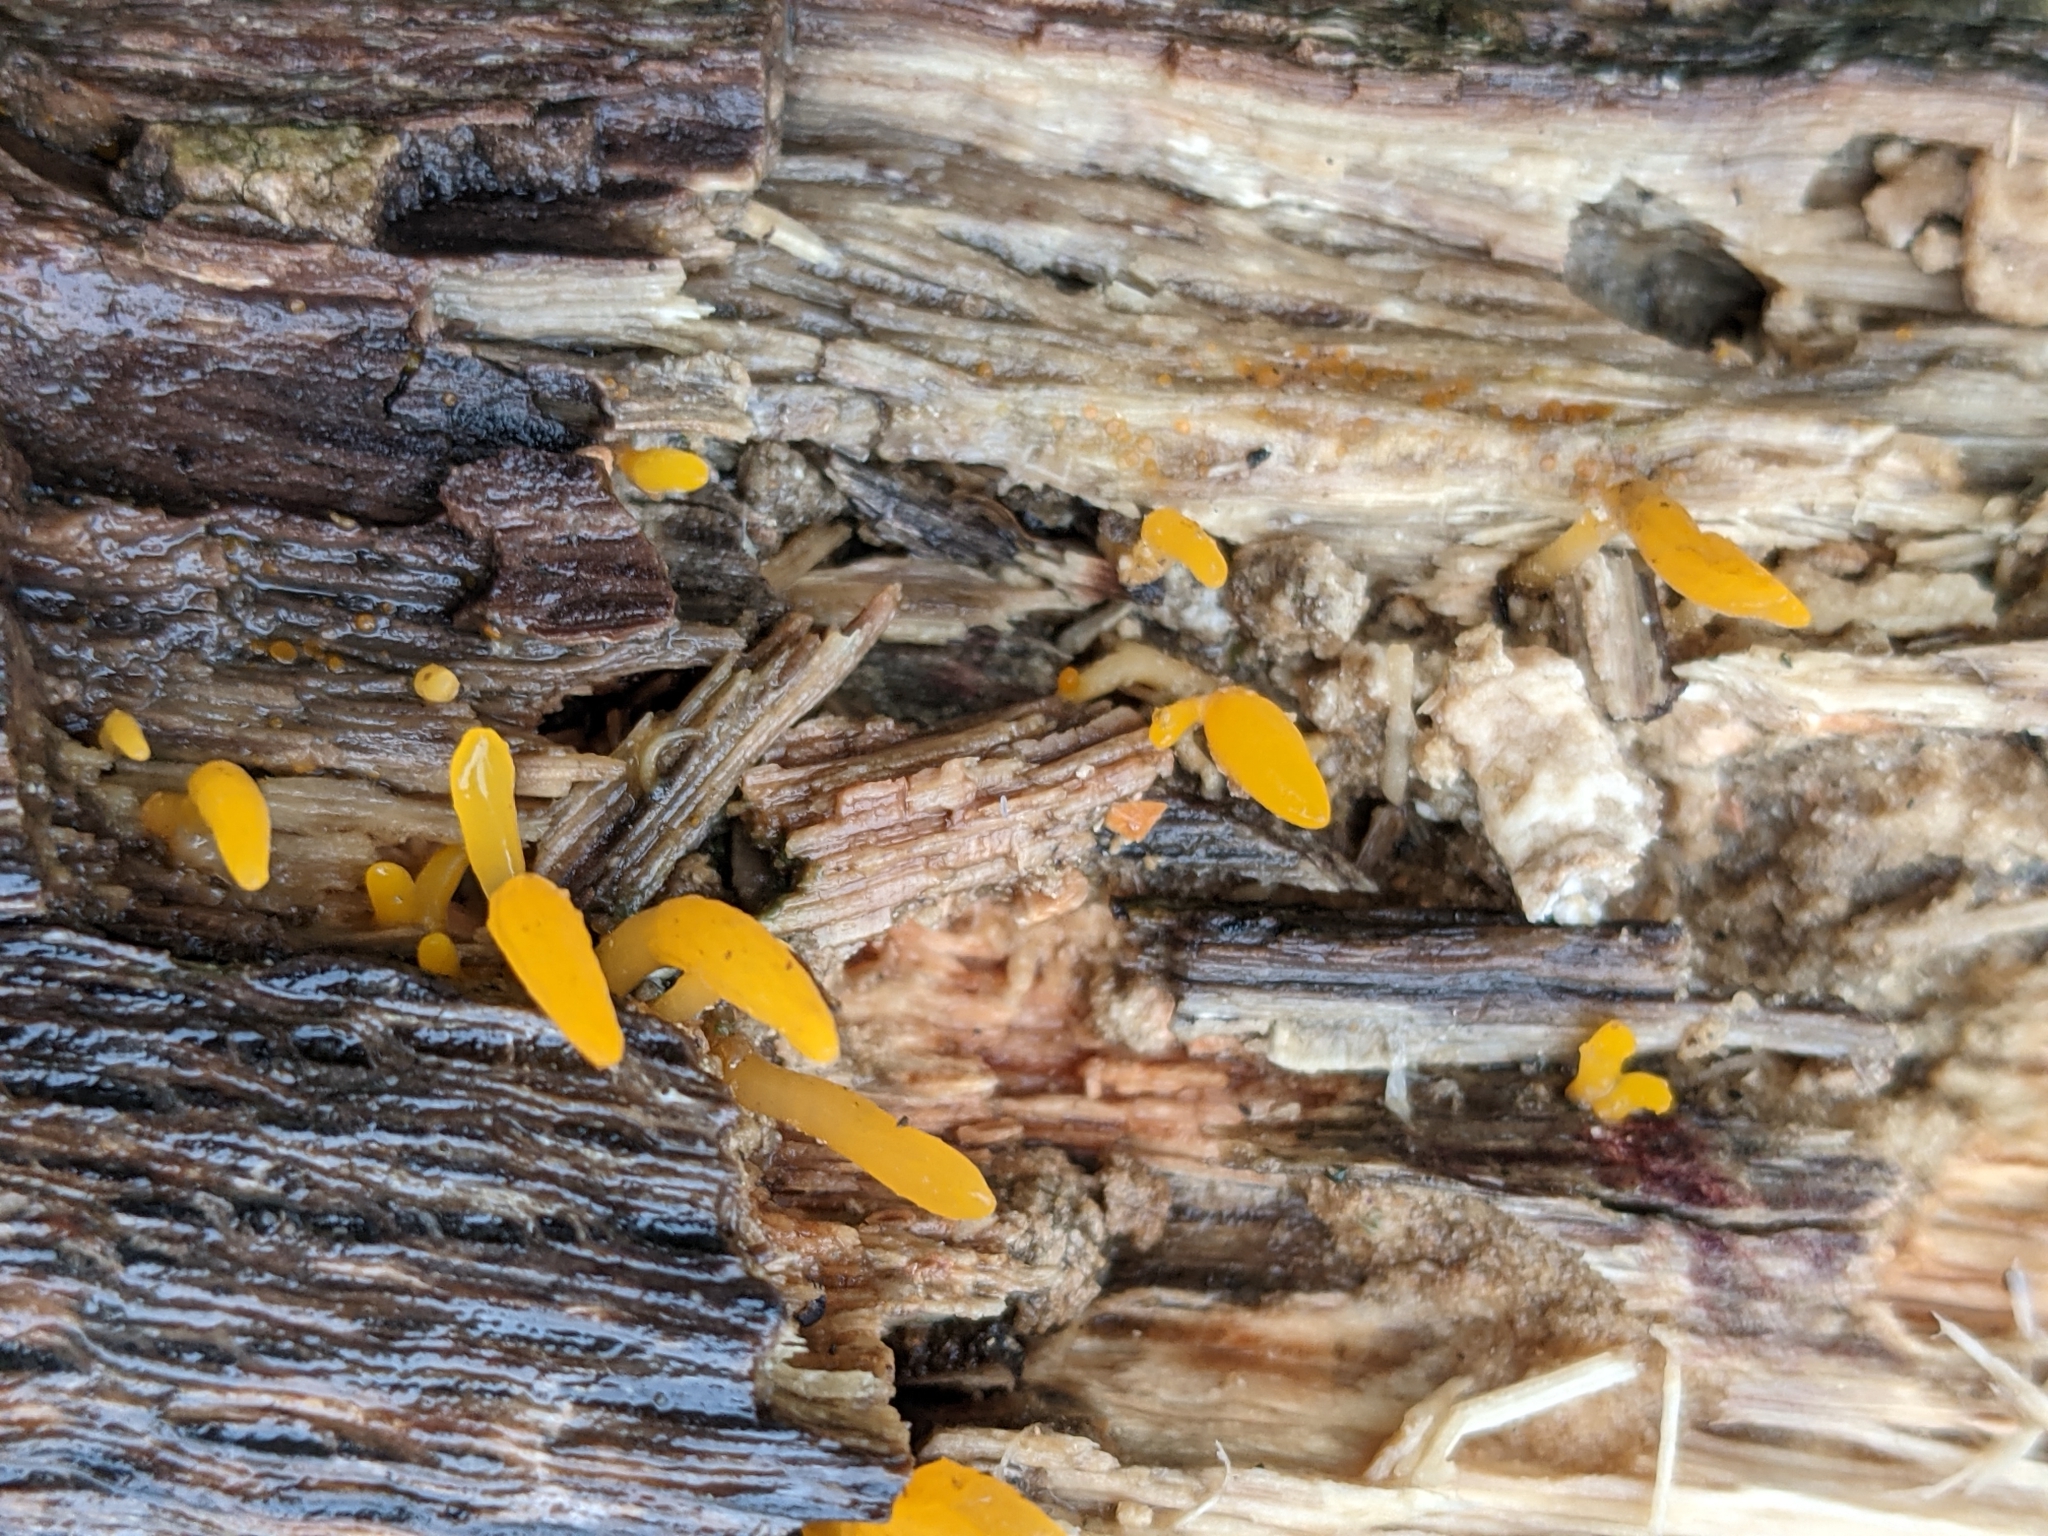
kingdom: Fungi
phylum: Basidiomycota
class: Dacrymycetes
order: Dacrymycetales
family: Dacrymycetaceae
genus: Calocera
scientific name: Calocera cornea
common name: Small stagshorn
